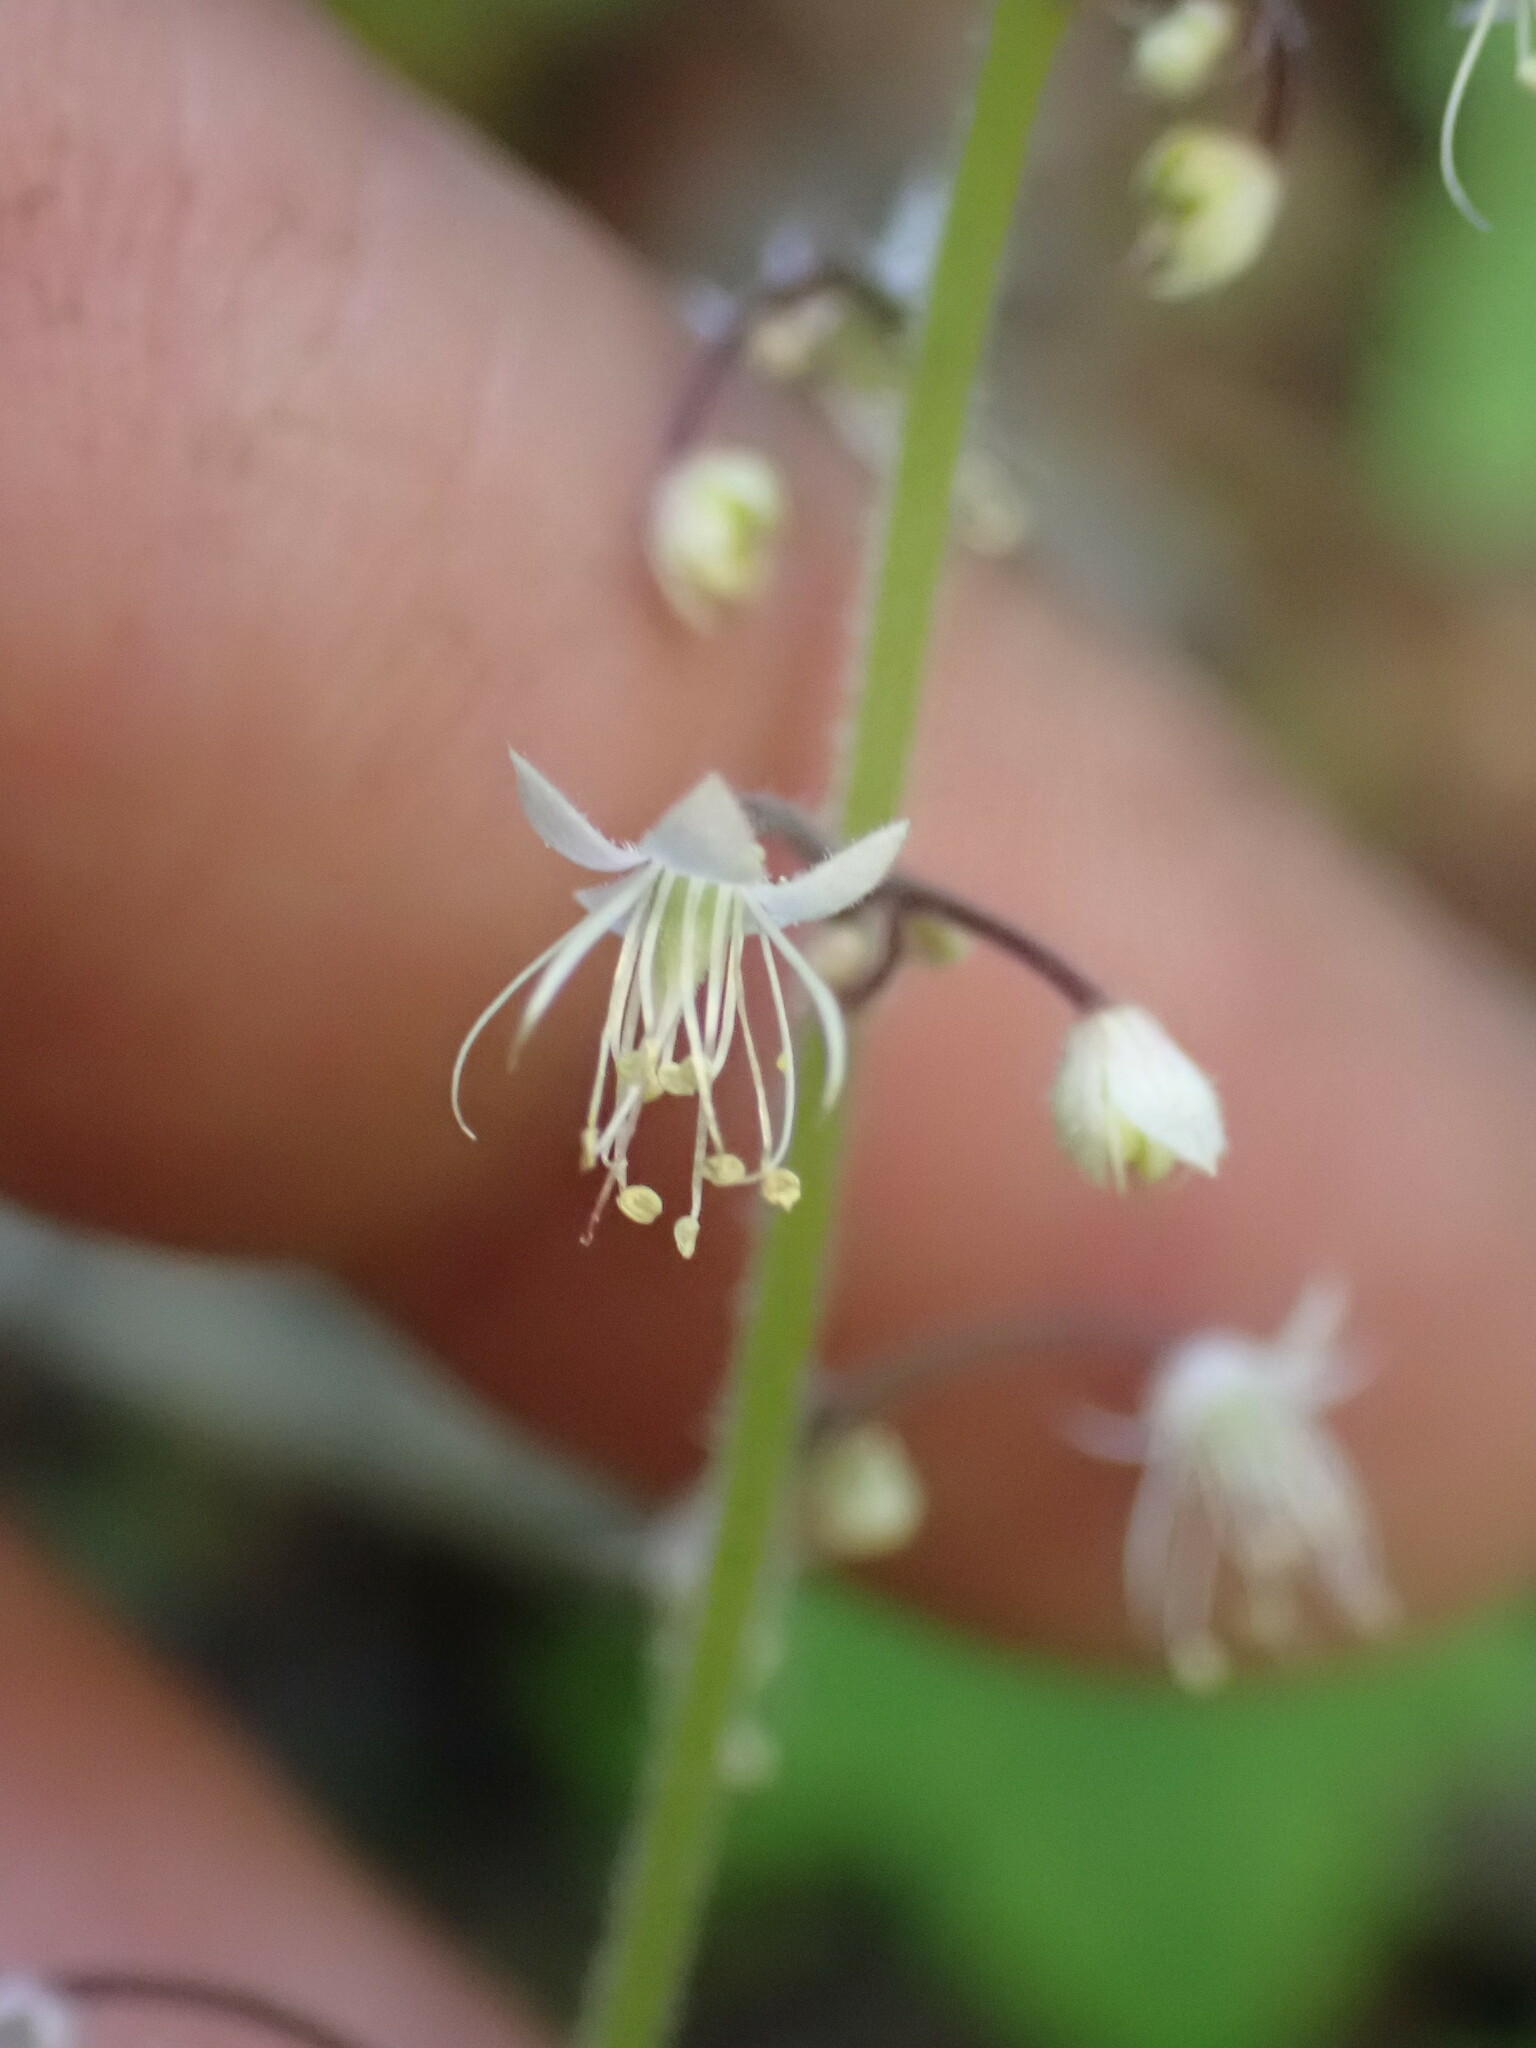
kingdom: Plantae
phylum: Tracheophyta
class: Magnoliopsida
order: Saxifragales
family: Saxifragaceae
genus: Tiarella
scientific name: Tiarella trifoliata
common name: Sugar-scoop
